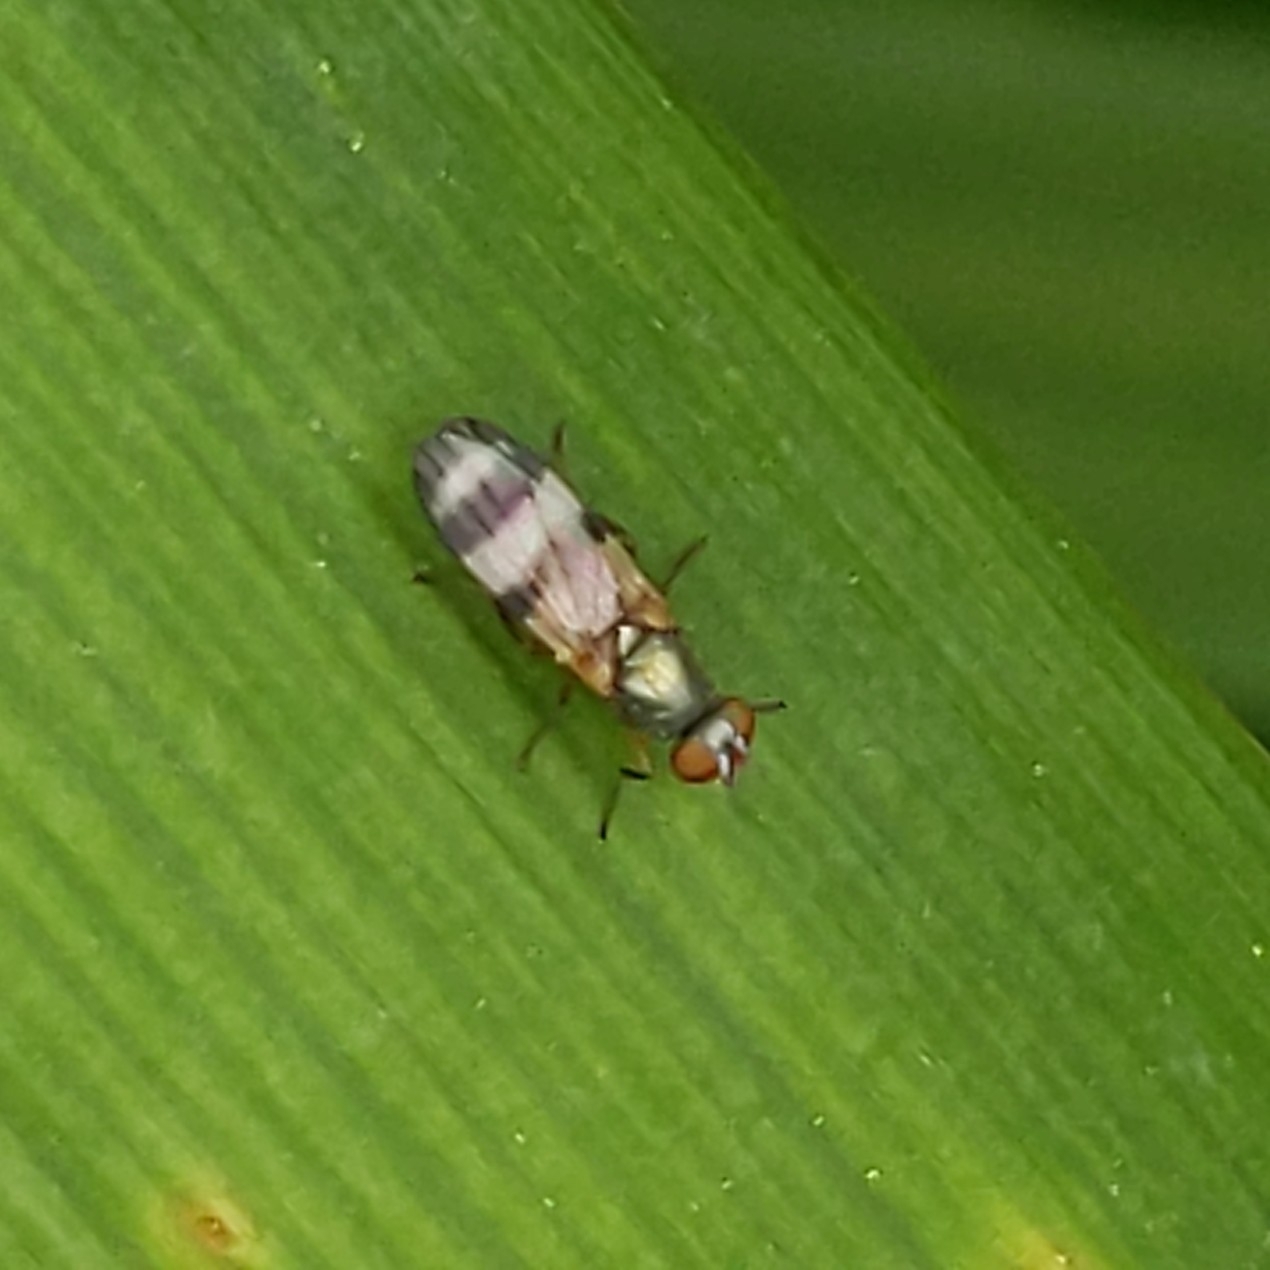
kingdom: Animalia
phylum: Arthropoda
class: Insecta
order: Diptera
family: Ulidiidae
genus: Chaetopsis
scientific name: Chaetopsis
